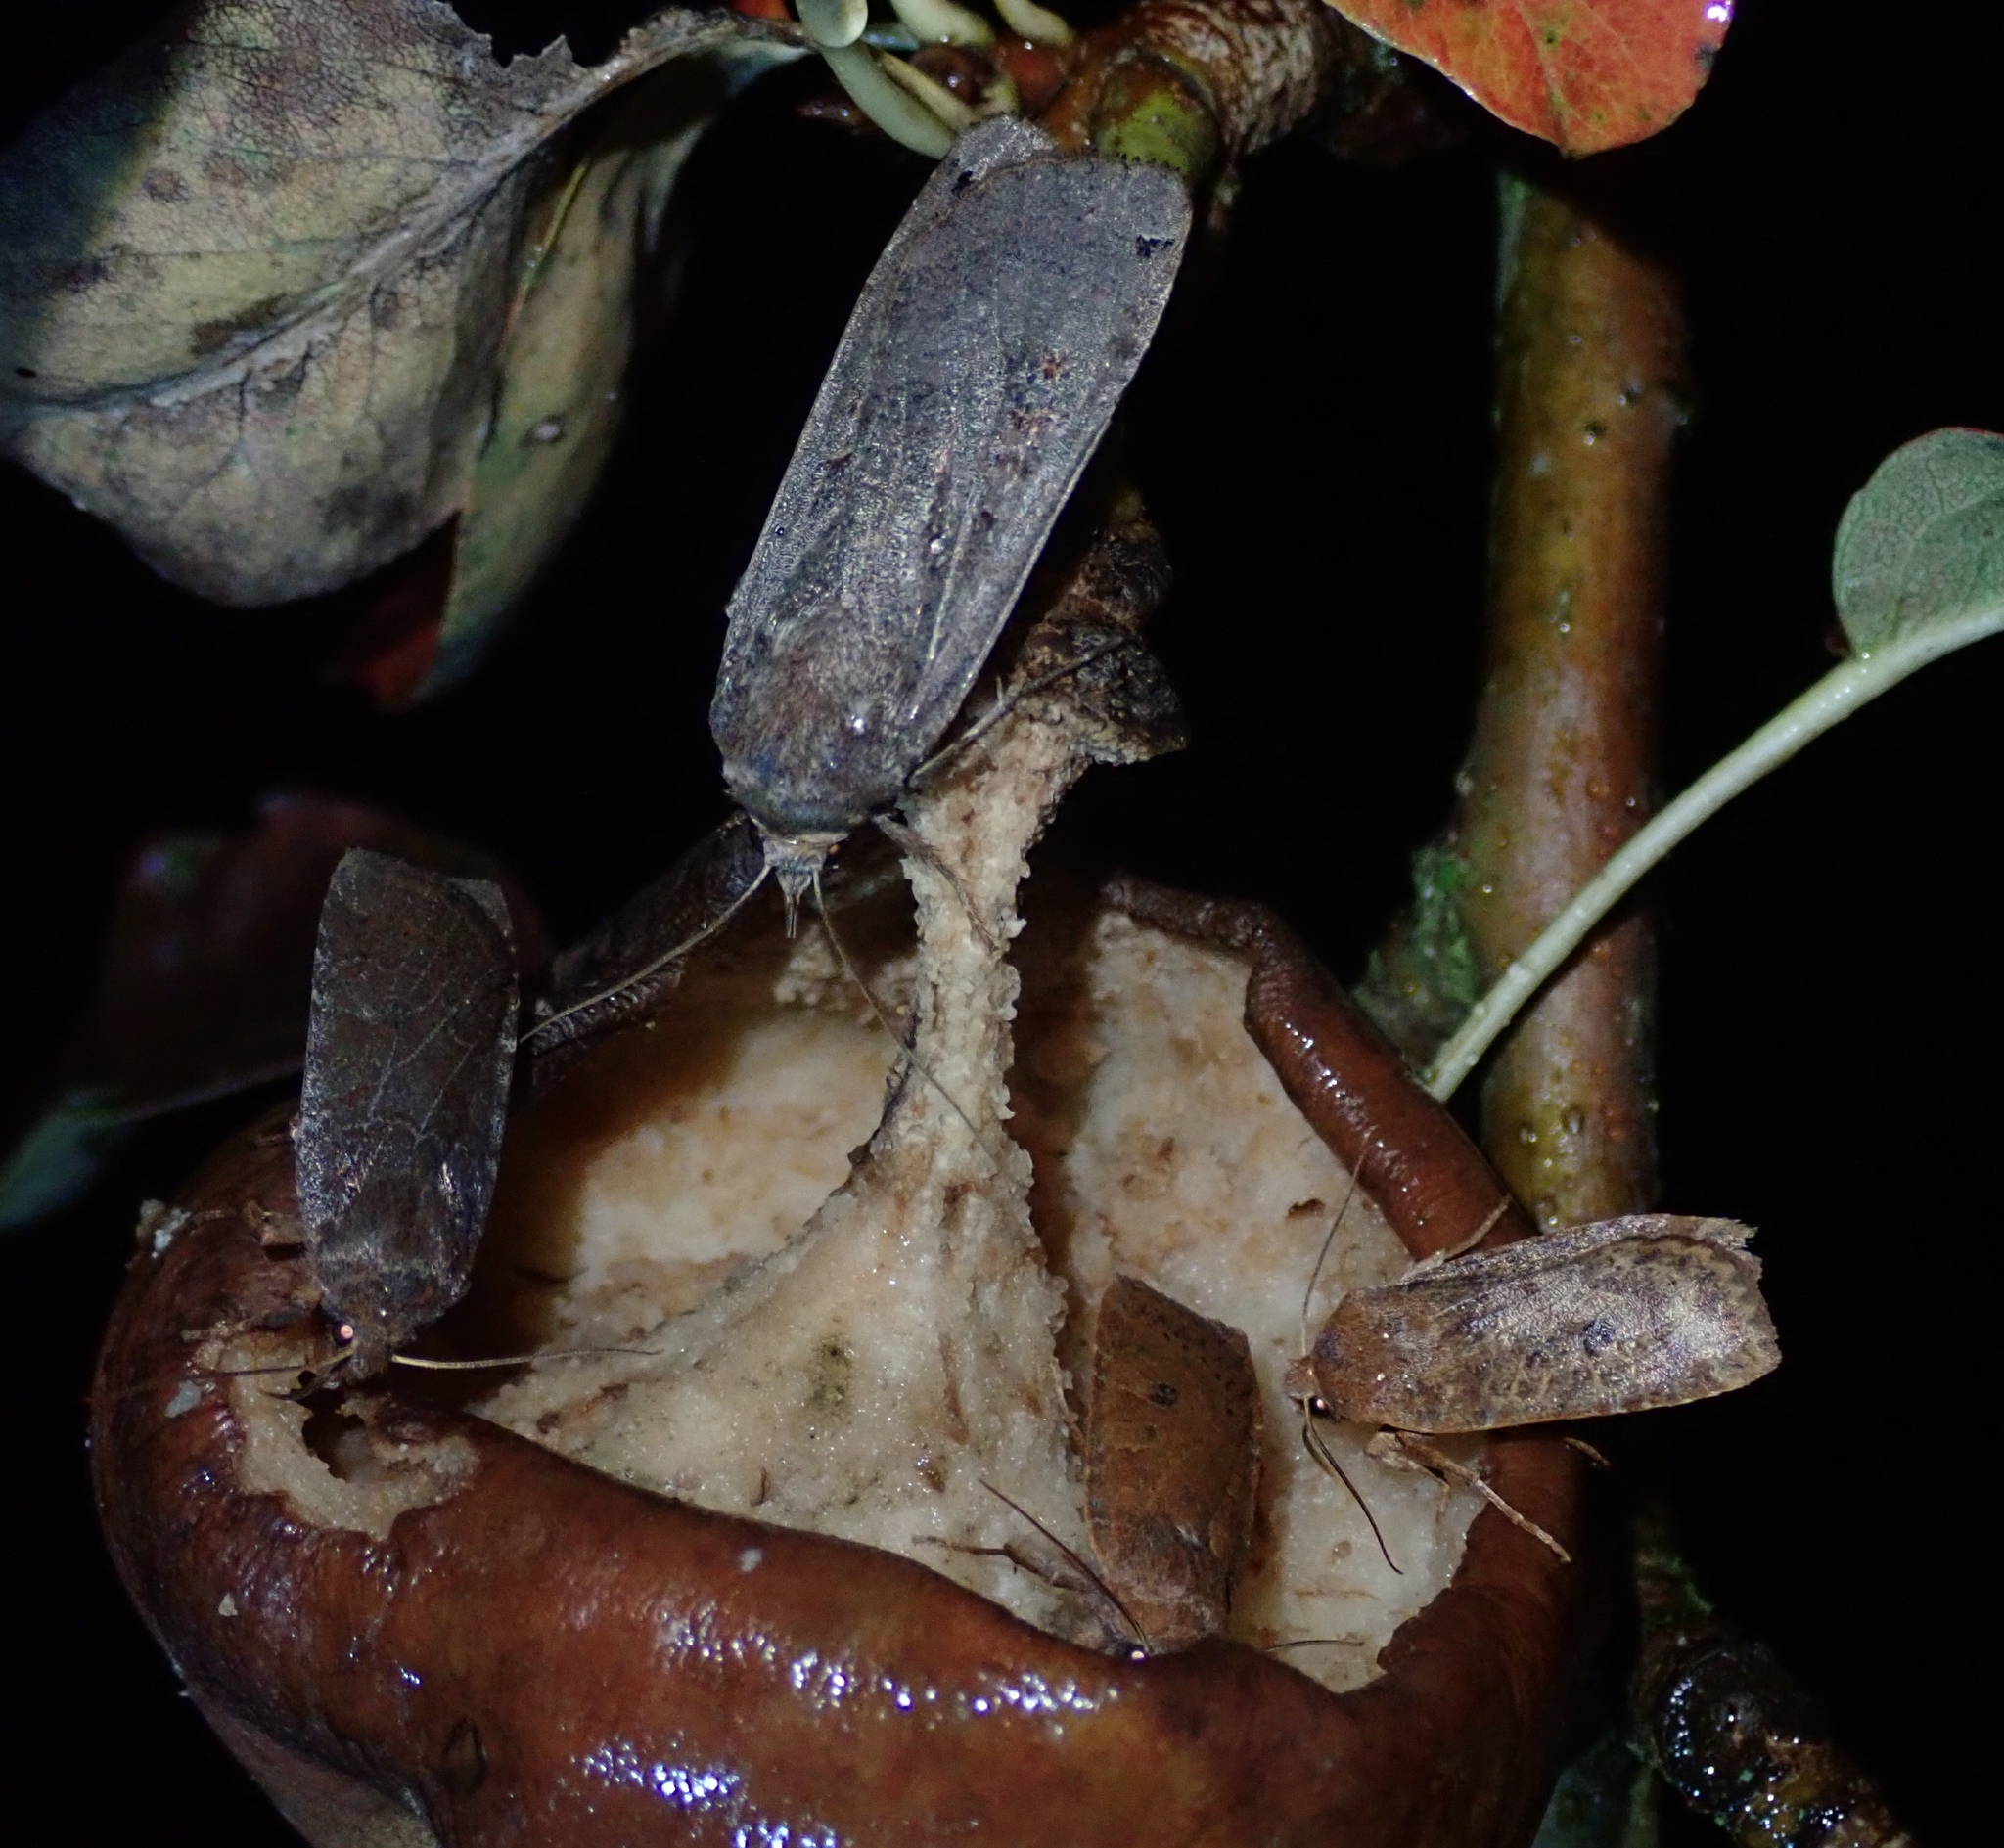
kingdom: Animalia
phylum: Arthropoda
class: Insecta
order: Lepidoptera
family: Noctuidae
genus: Noctua
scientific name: Noctua pronuba
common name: Large yellow underwing
